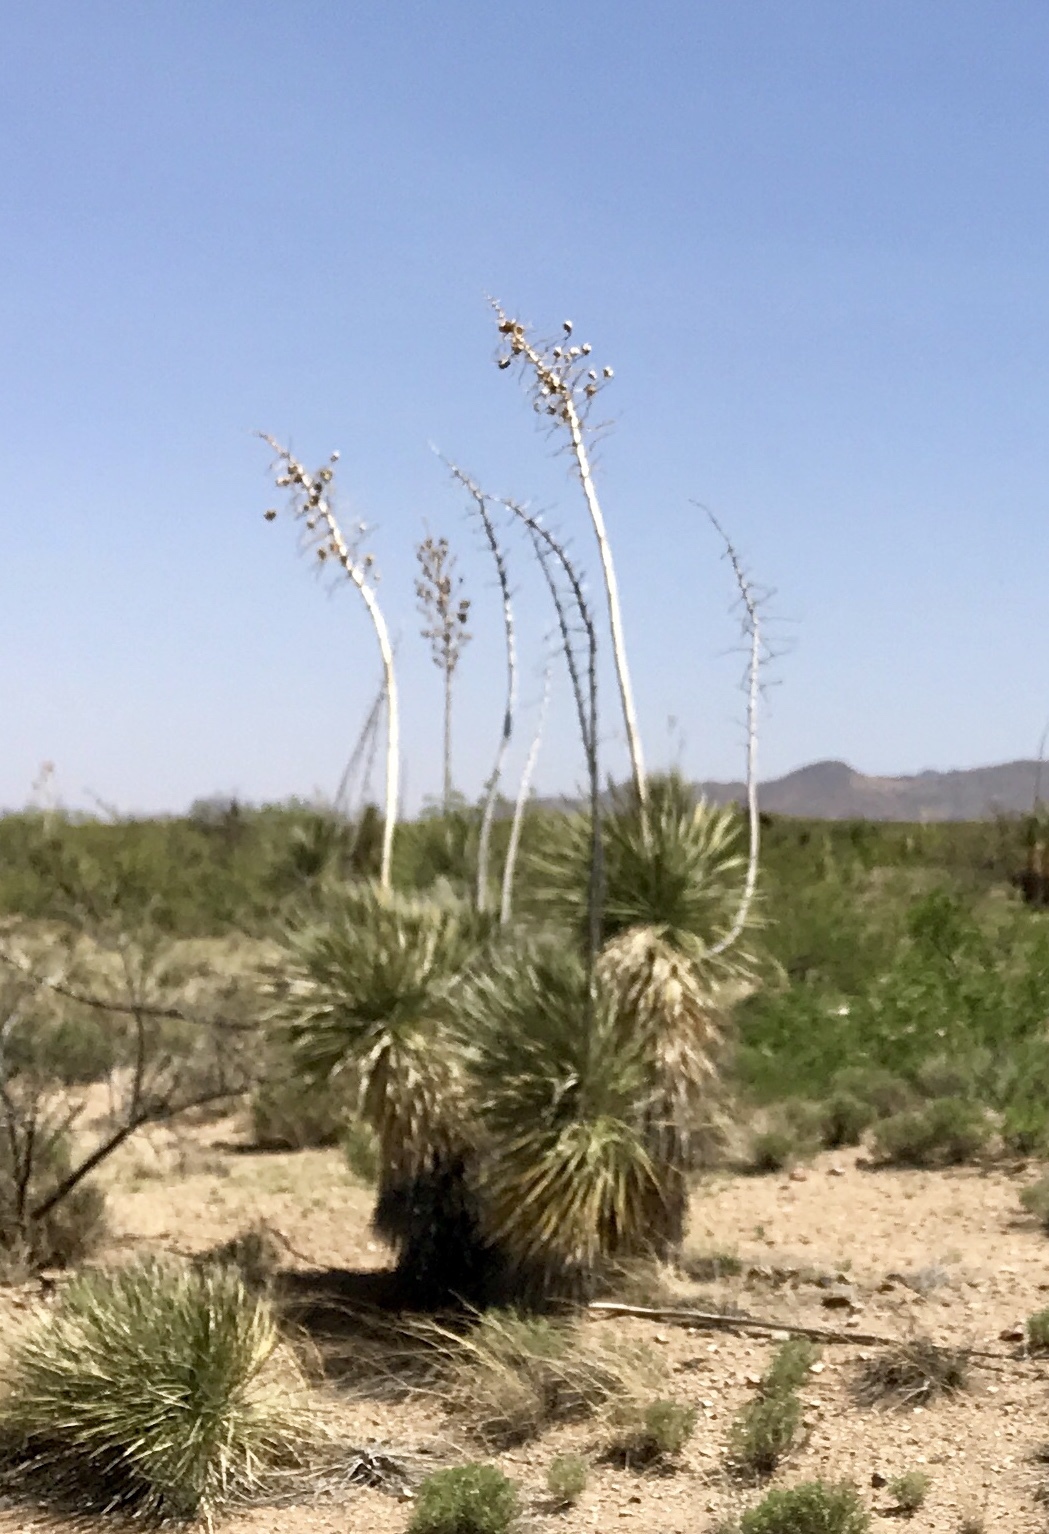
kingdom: Plantae
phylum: Tracheophyta
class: Liliopsida
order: Asparagales
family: Asparagaceae
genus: Yucca
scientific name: Yucca elata
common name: Palmella
